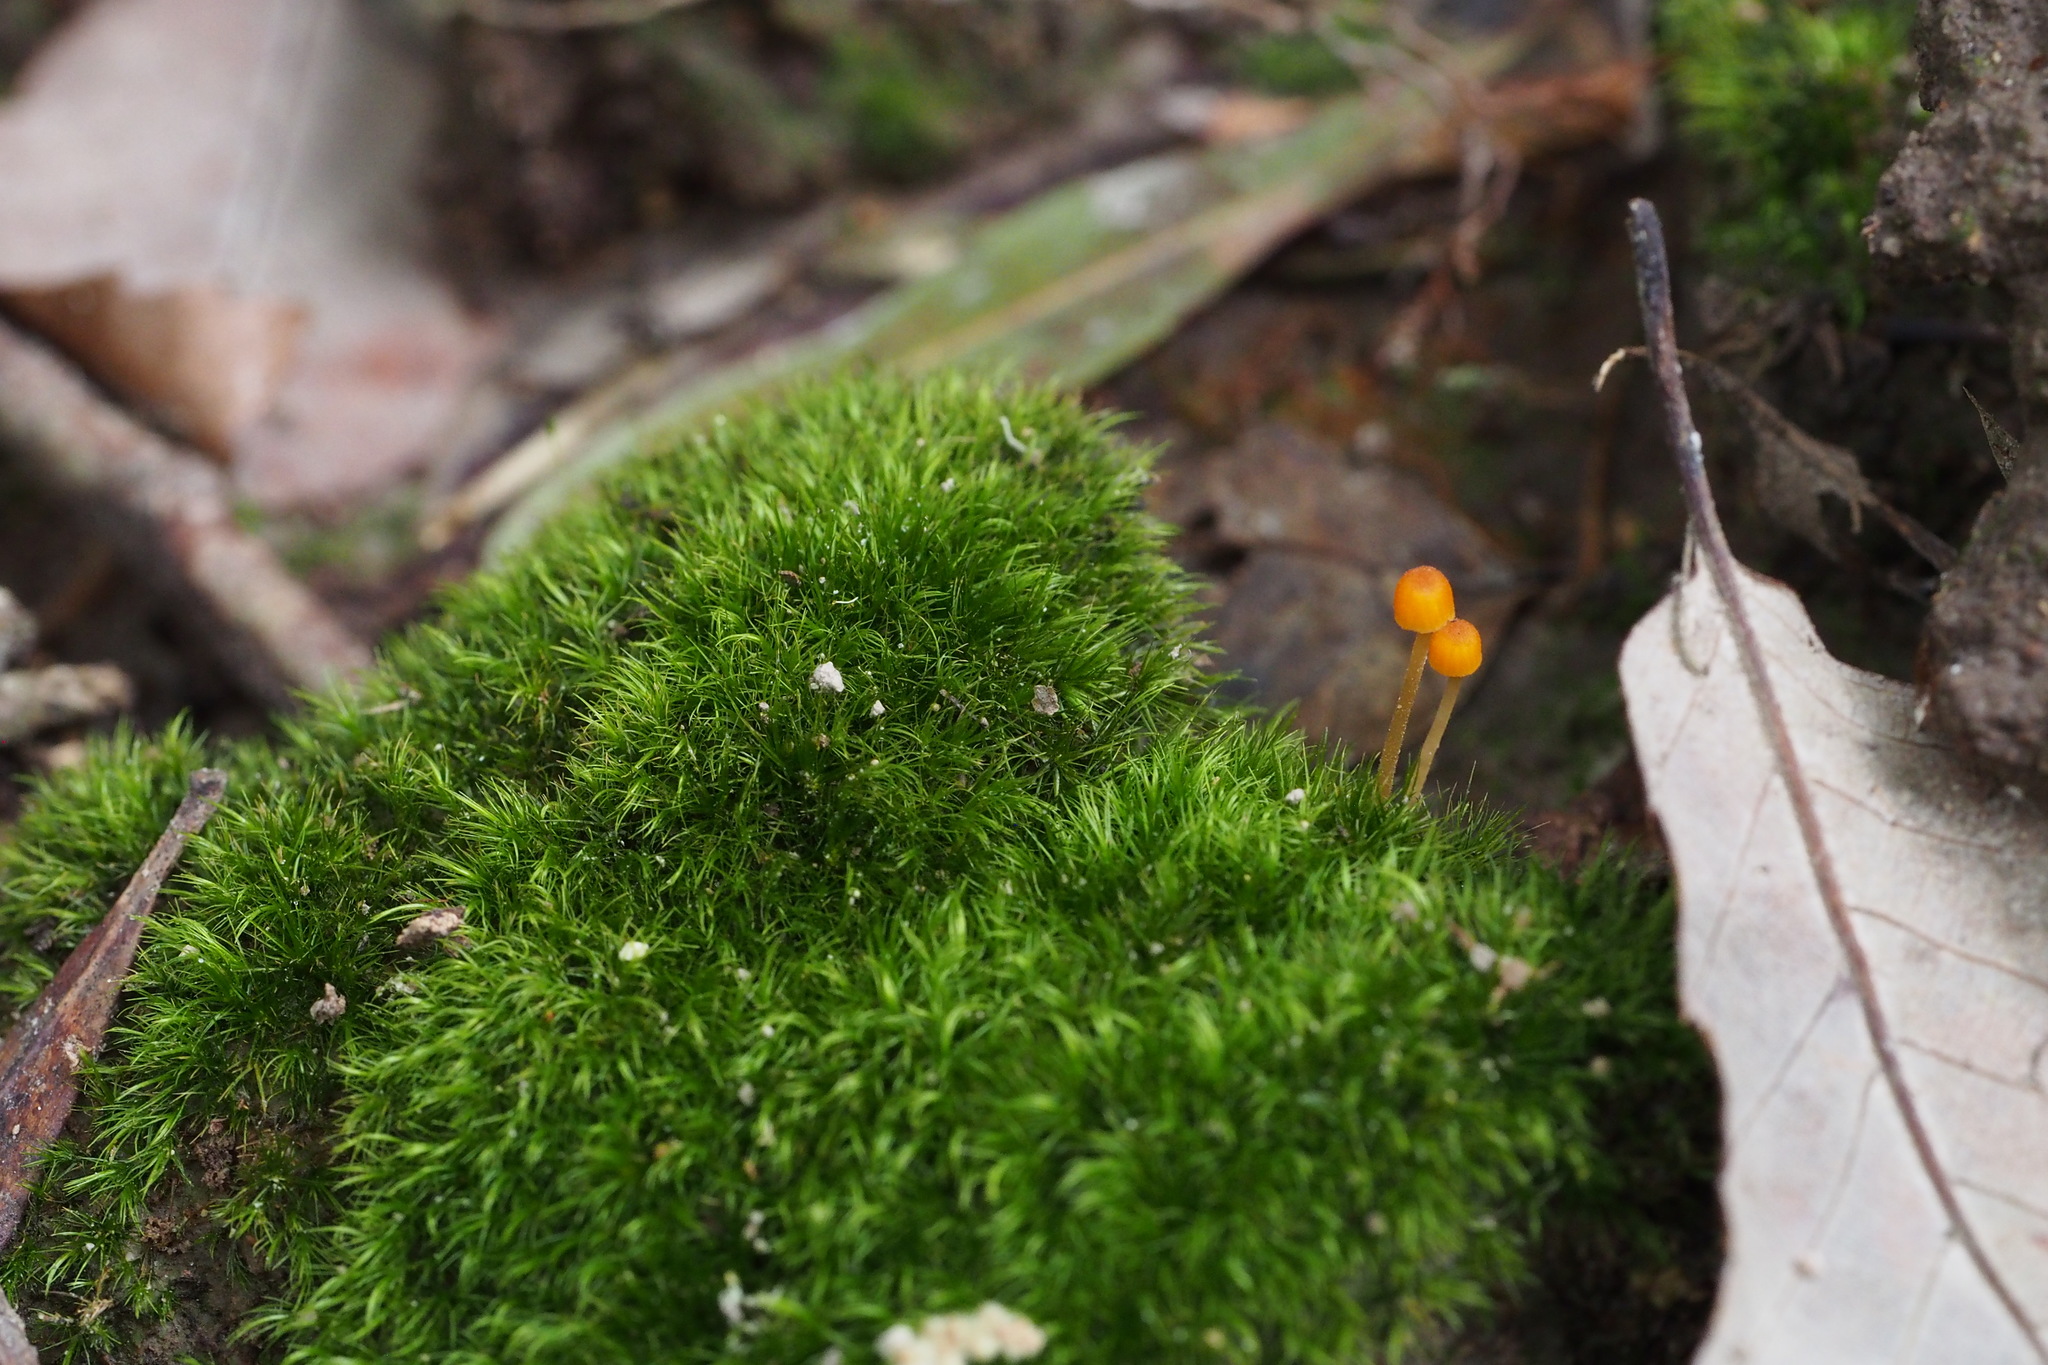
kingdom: Fungi
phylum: Basidiomycota
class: Agaricomycetes
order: Agaricales
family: Mycenaceae
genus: Mycena
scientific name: Mycena acicula
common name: Orange bonnet
